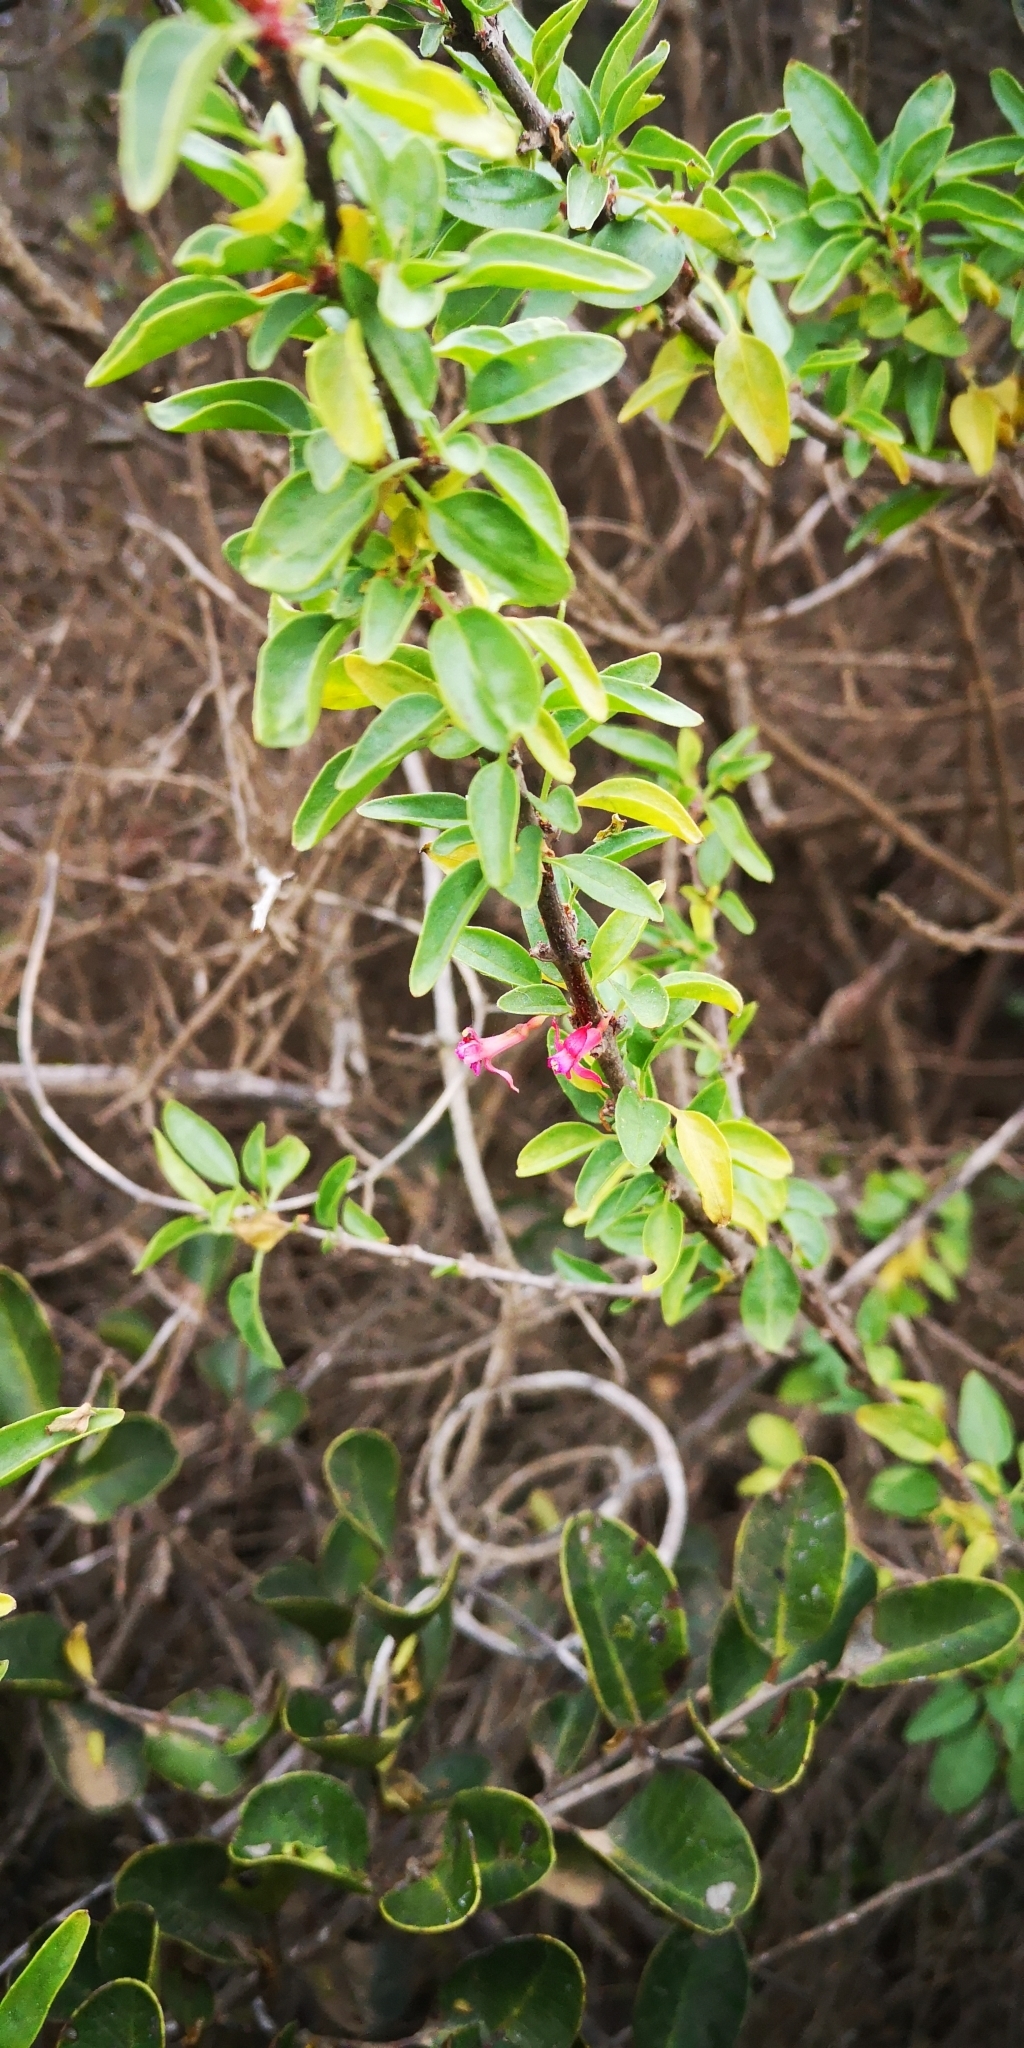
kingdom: Plantae
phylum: Tracheophyta
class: Magnoliopsida
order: Myrtales
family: Onagraceae
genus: Fuchsia
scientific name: Fuchsia lycioides
